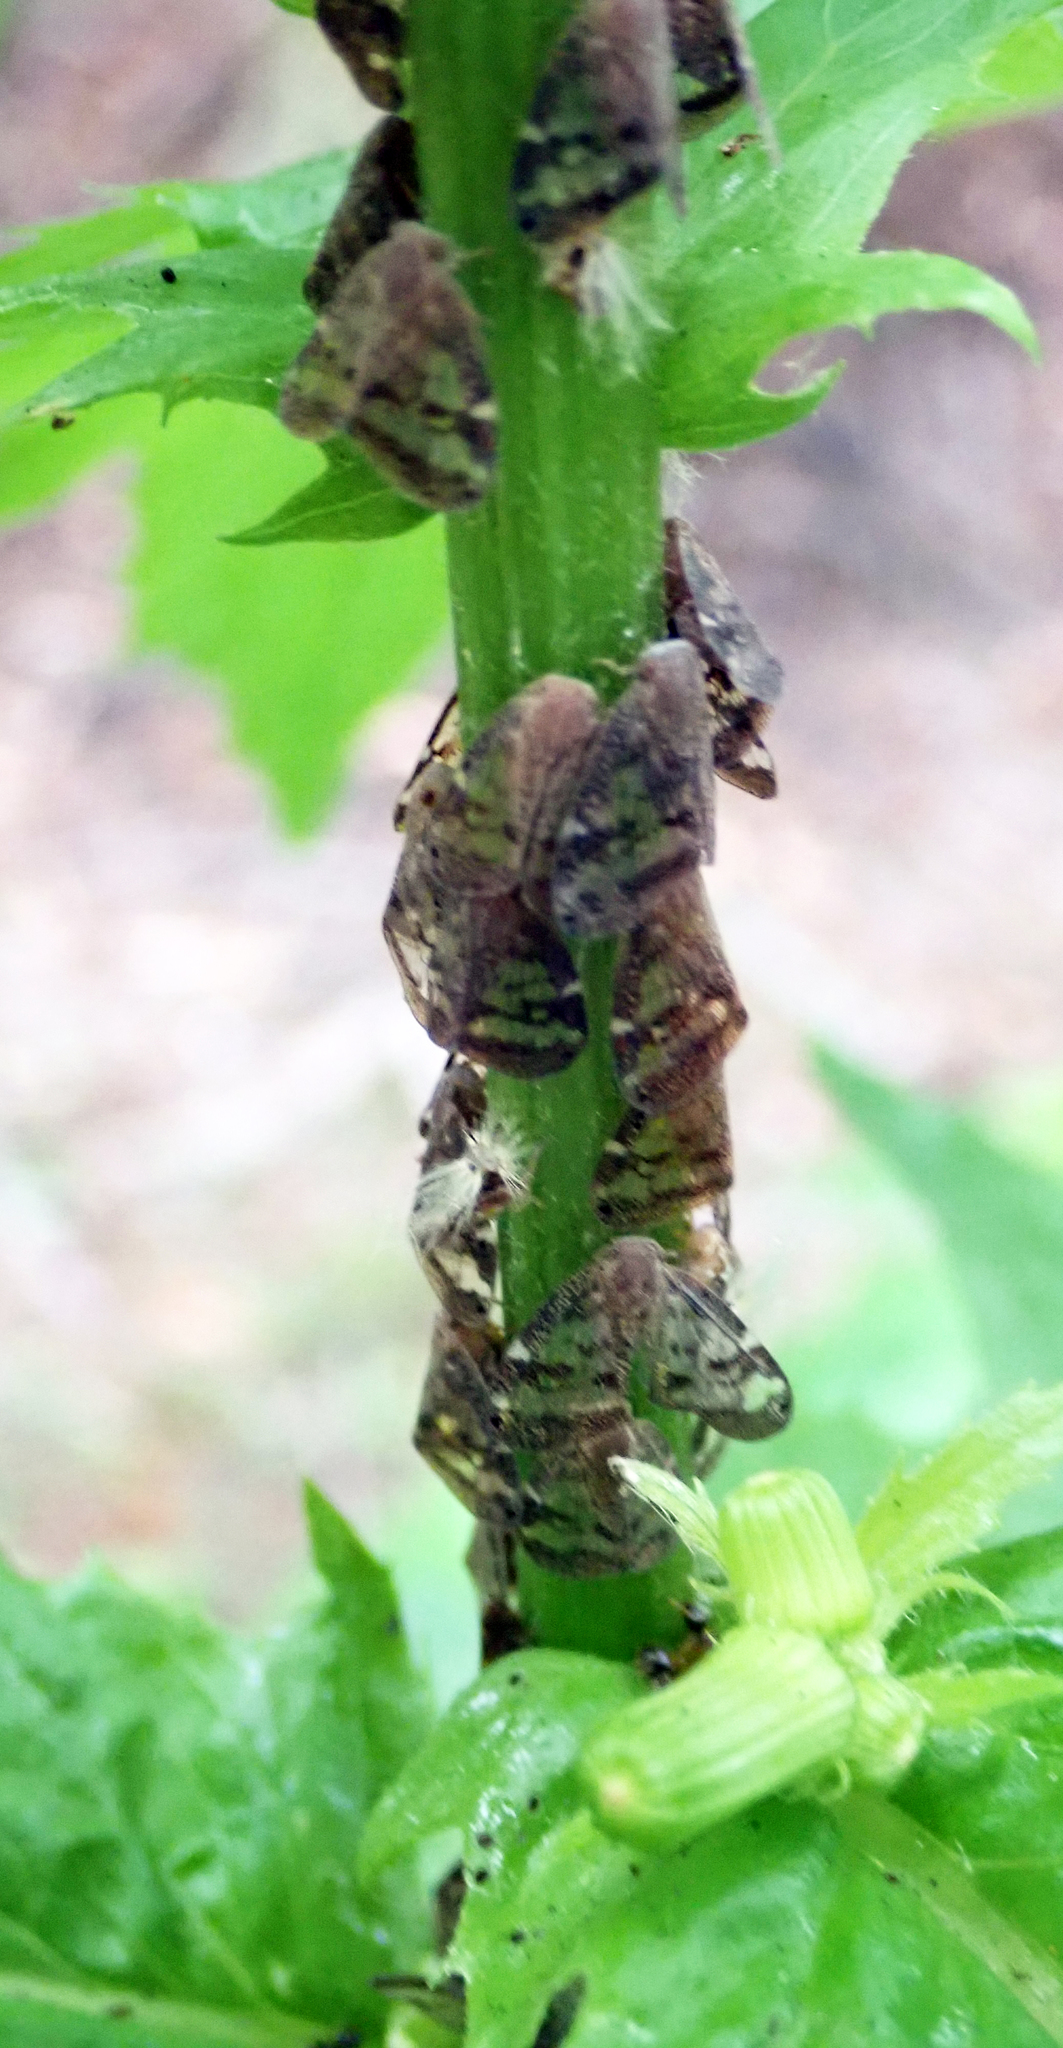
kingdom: Animalia
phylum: Arthropoda
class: Insecta
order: Hemiptera
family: Ricaniidae
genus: Scolypopa
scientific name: Scolypopa australis
